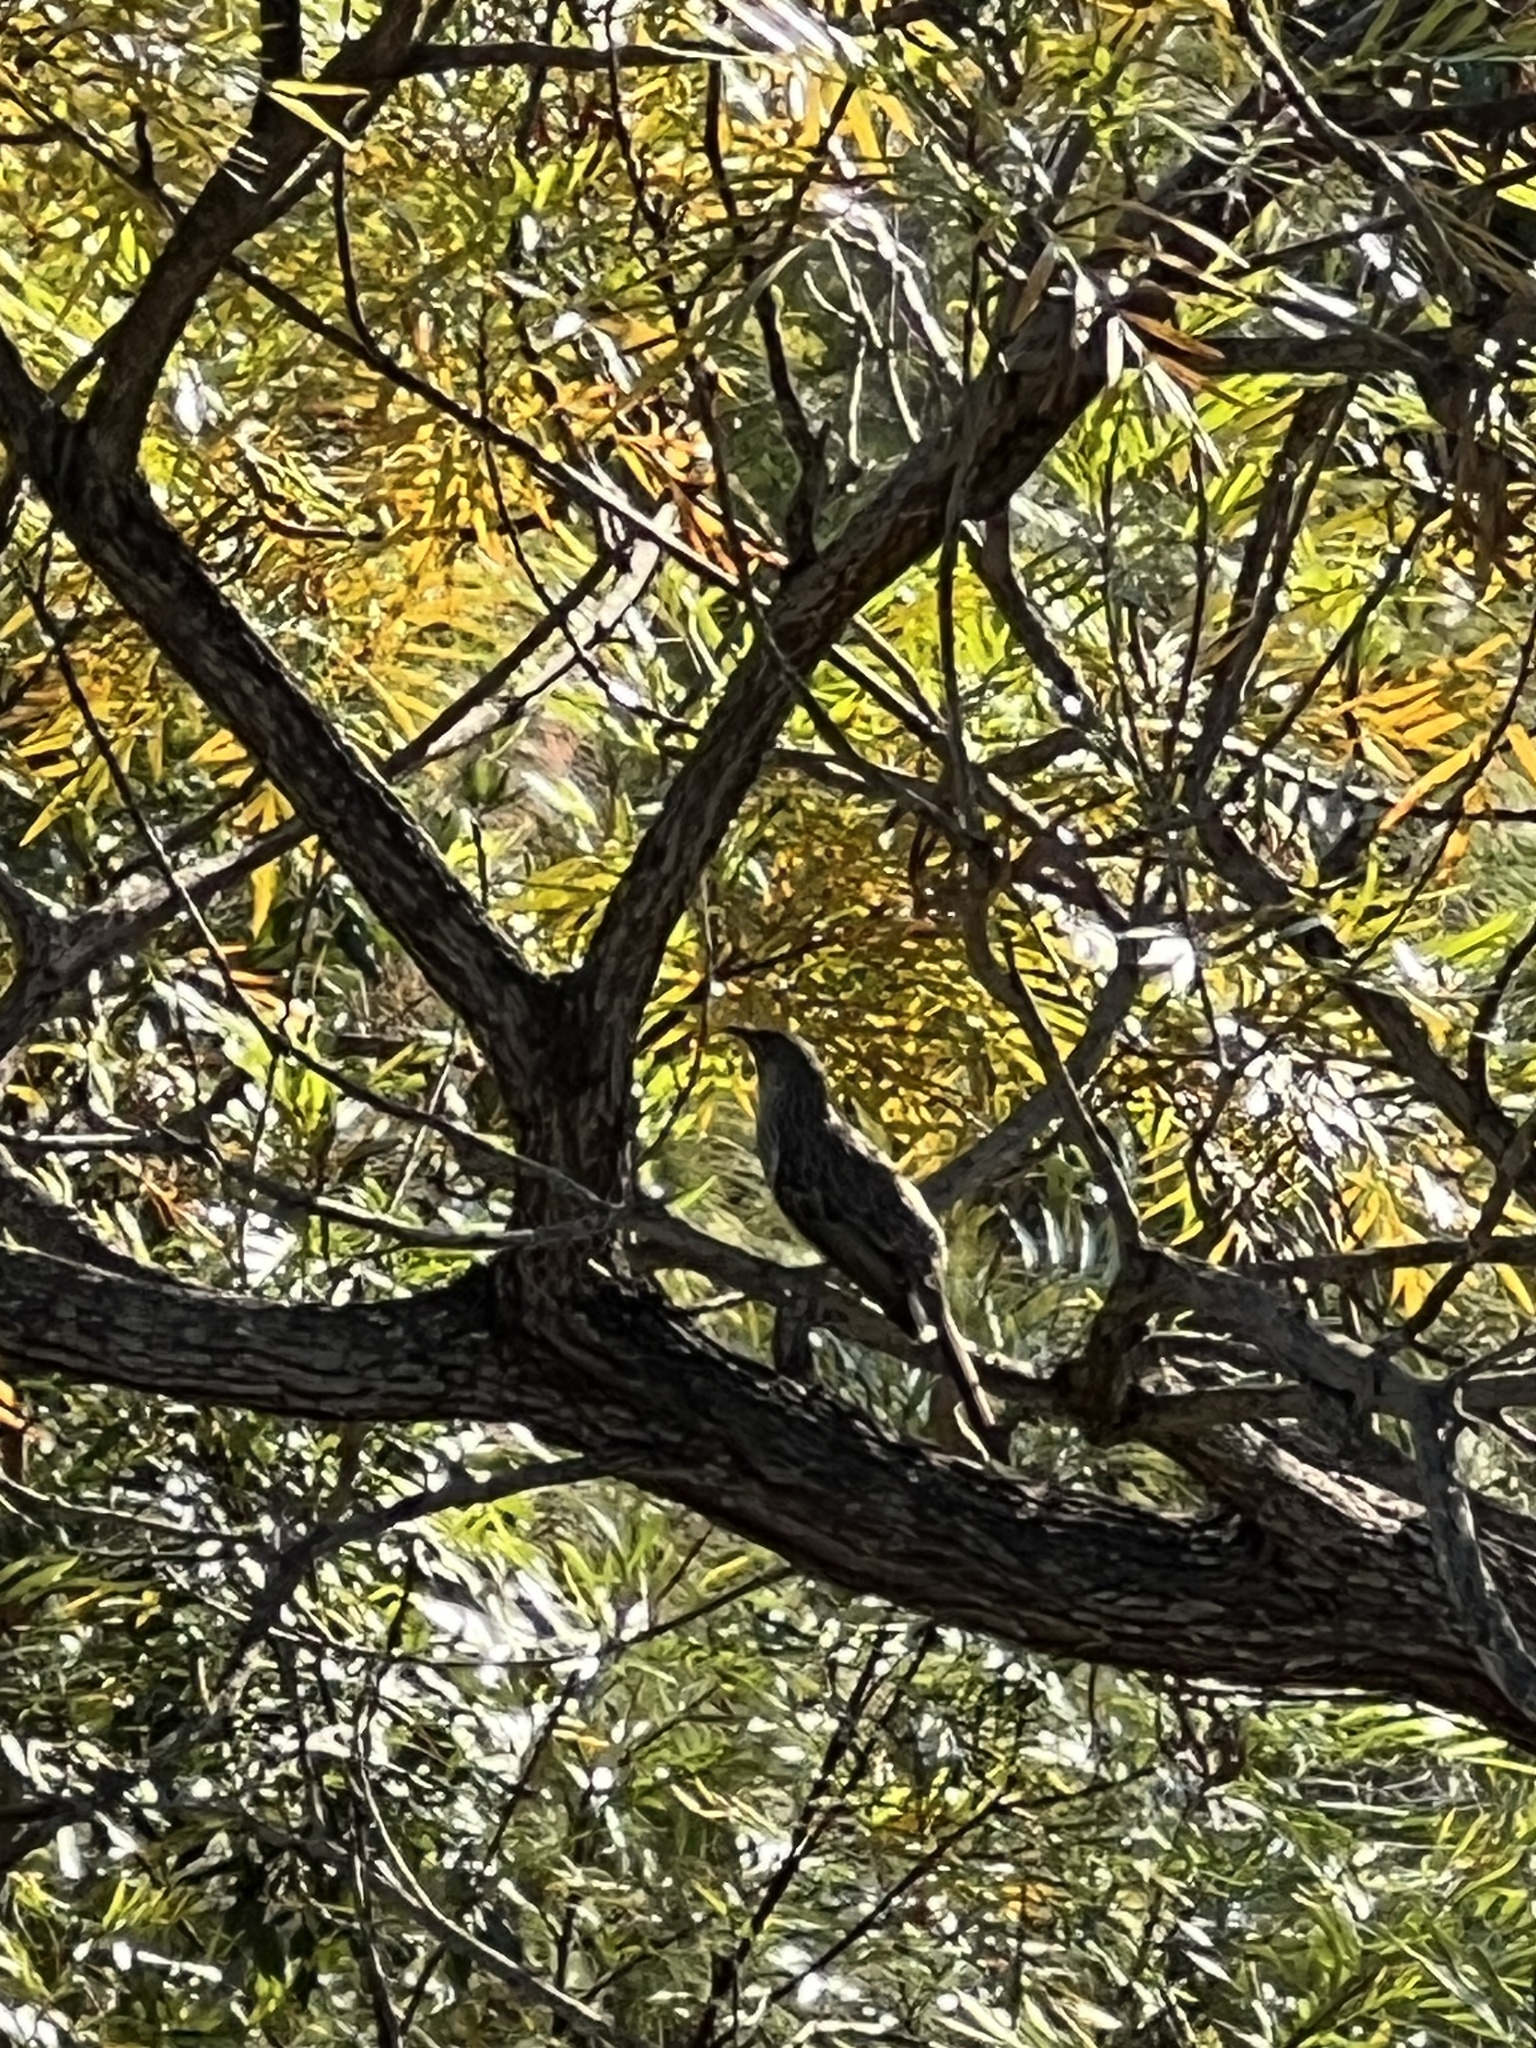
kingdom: Animalia
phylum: Chordata
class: Aves
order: Passeriformes
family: Meliphagidae
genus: Anthochaera
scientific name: Anthochaera carunculata
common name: Red wattlebird
